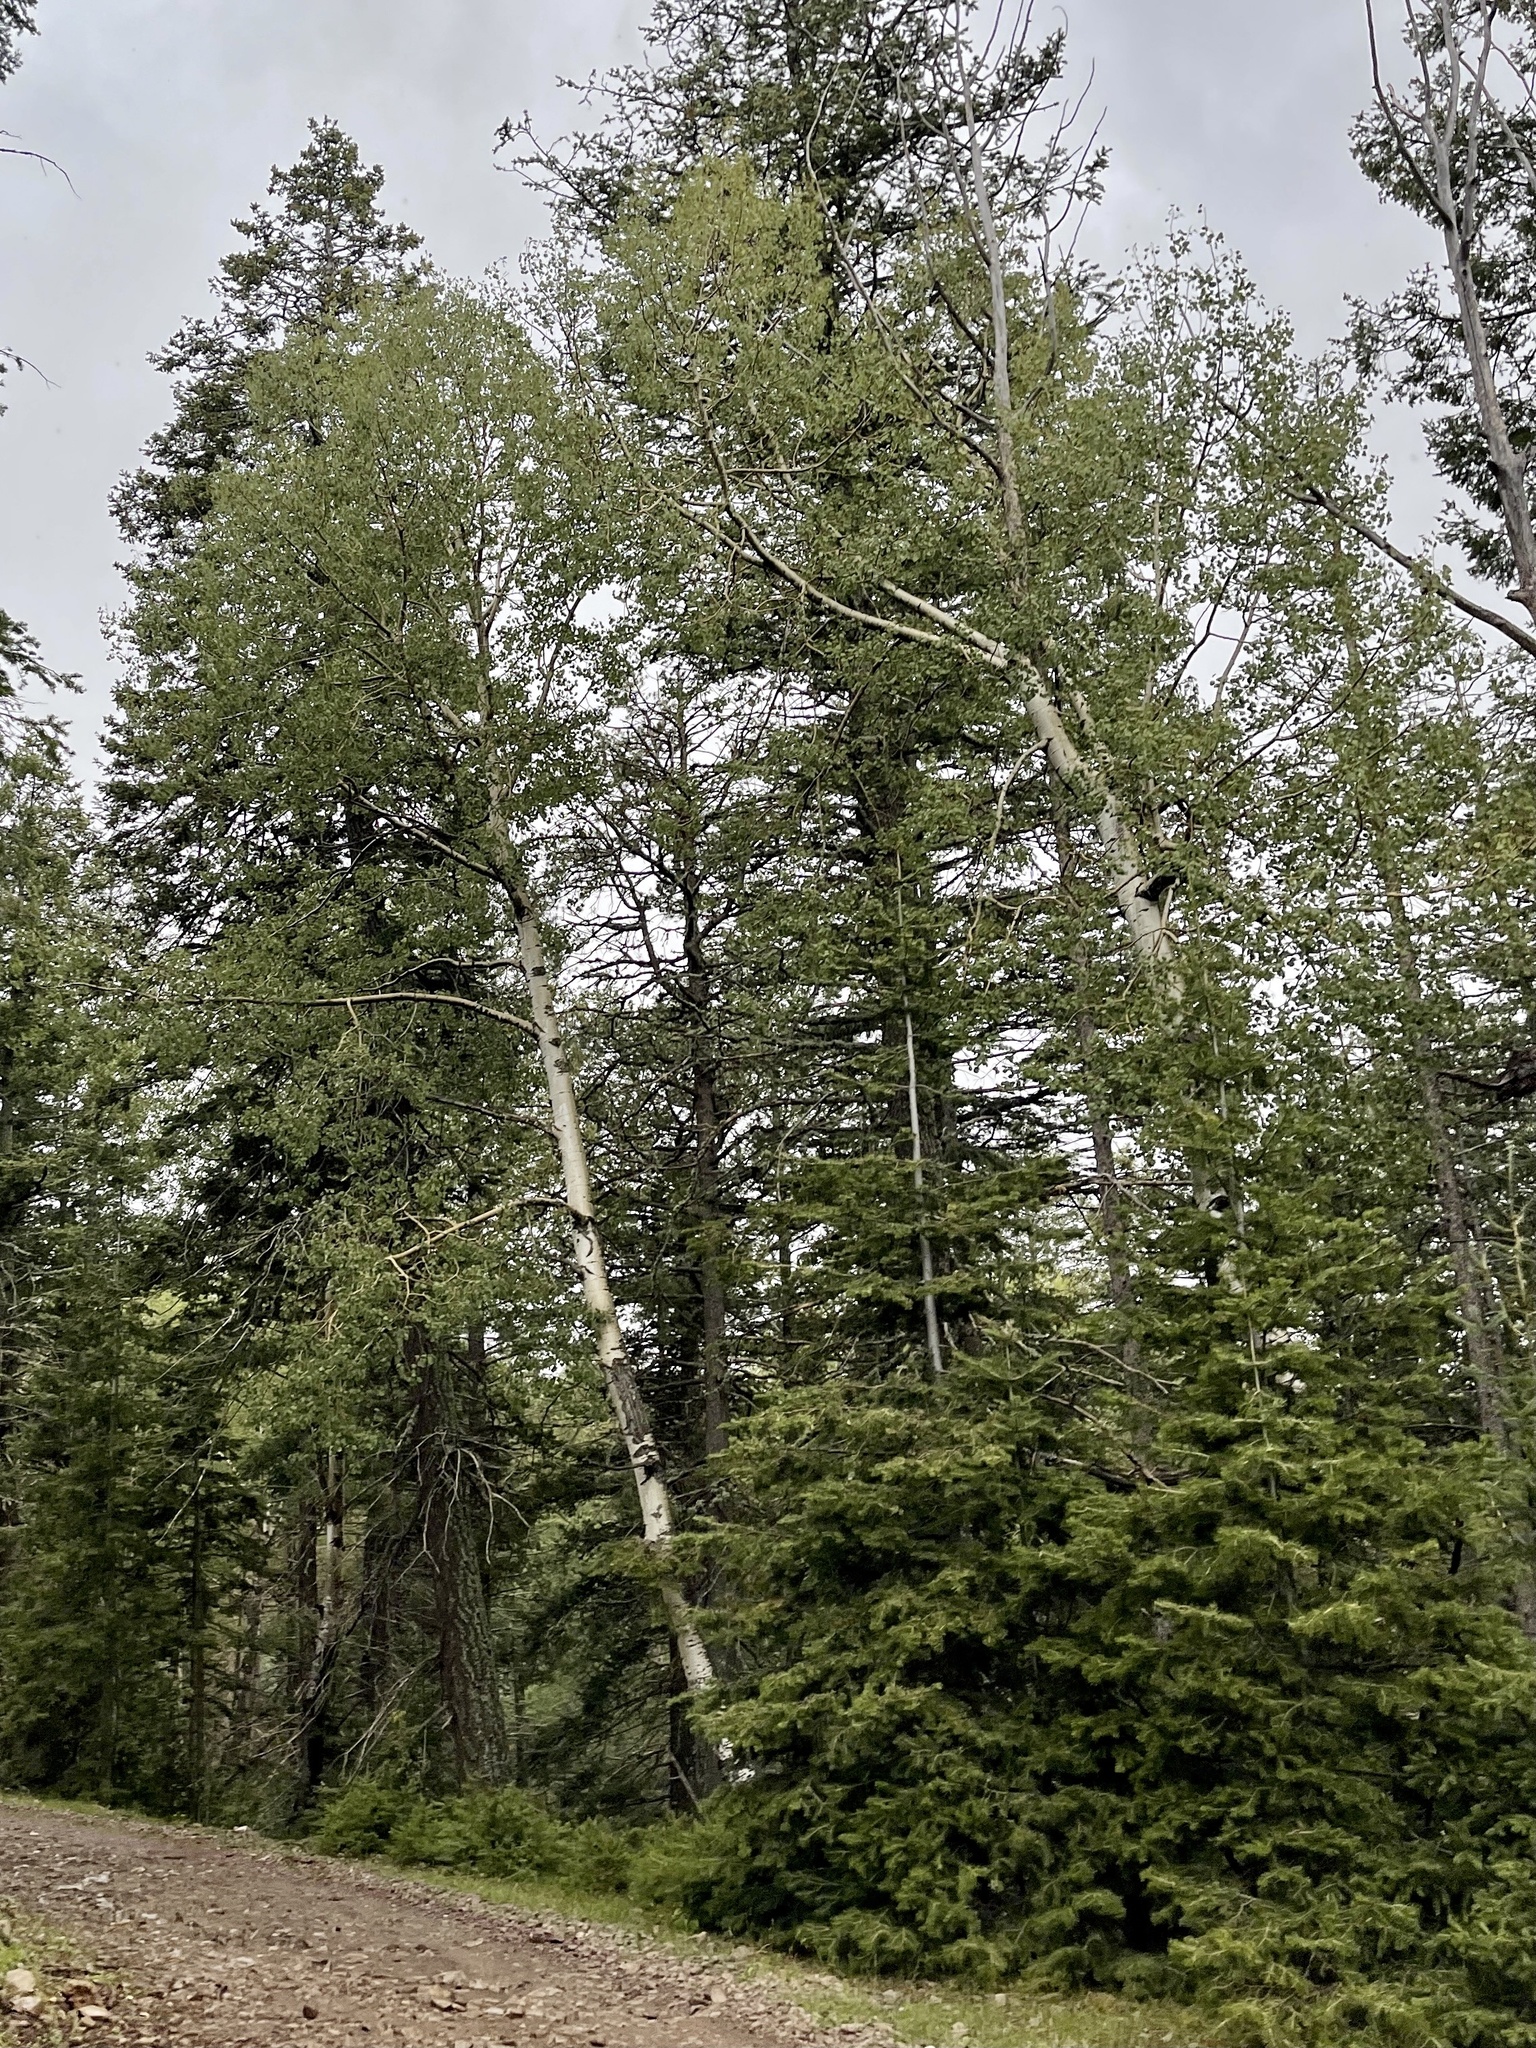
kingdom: Plantae
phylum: Tracheophyta
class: Magnoliopsida
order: Malpighiales
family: Salicaceae
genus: Populus
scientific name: Populus tremuloides
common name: Quaking aspen
